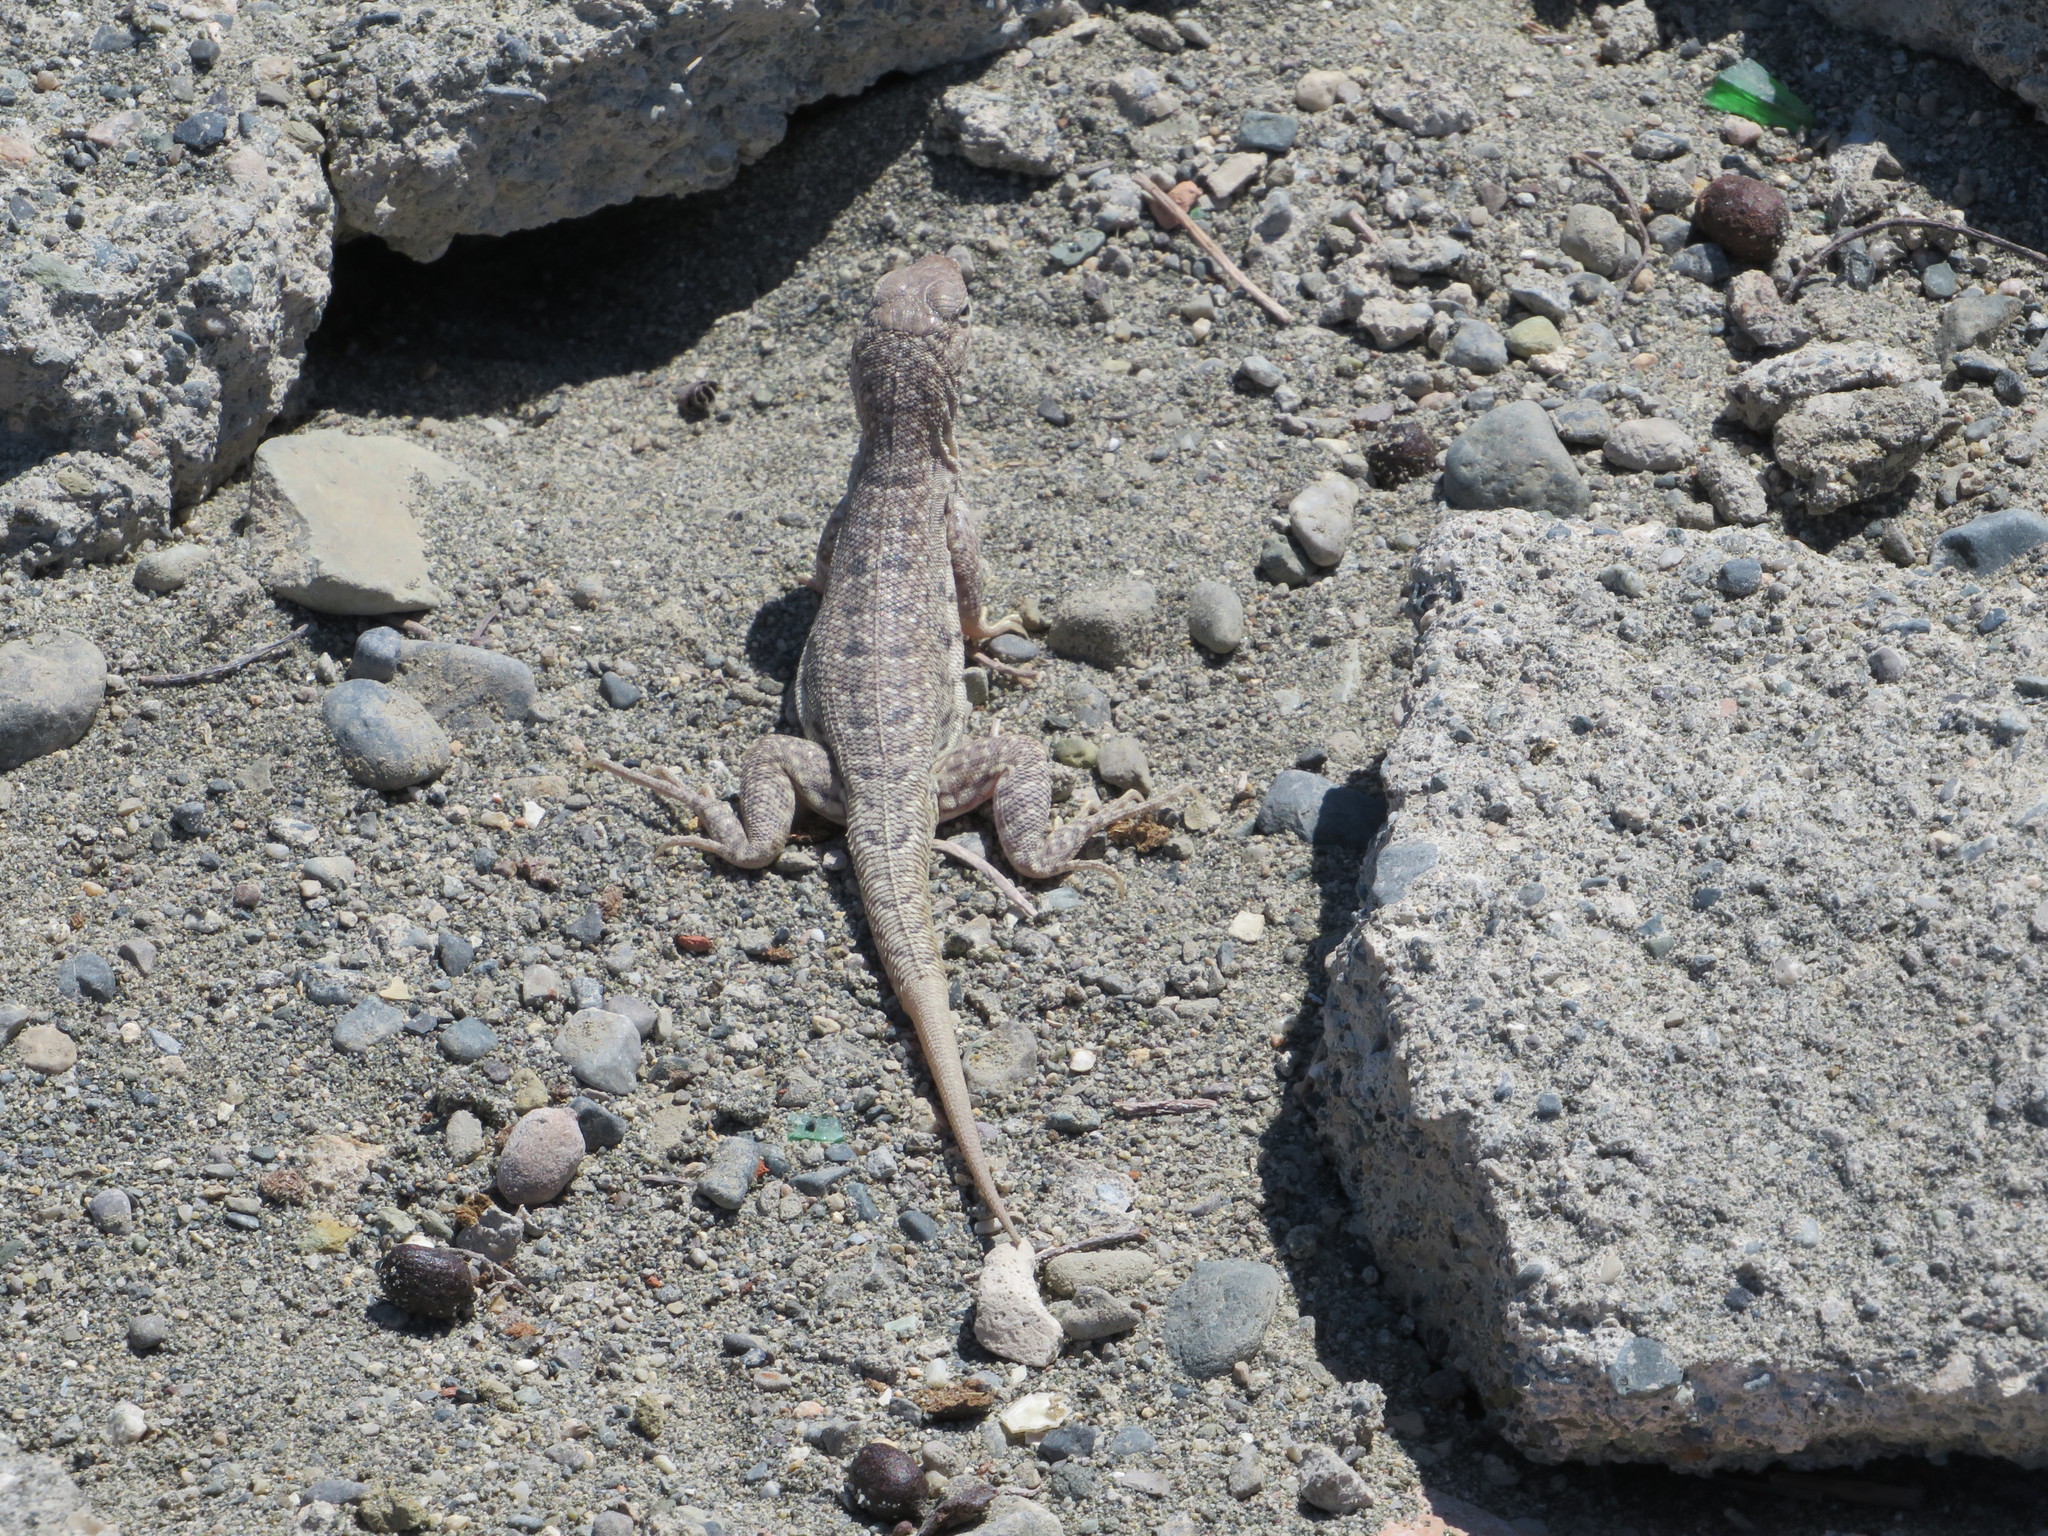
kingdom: Animalia
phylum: Chordata
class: Squamata
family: Leiocephalidae
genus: Leiocephalus
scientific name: Leiocephalus sixtoi
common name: Hispaniolan dune curlytail
